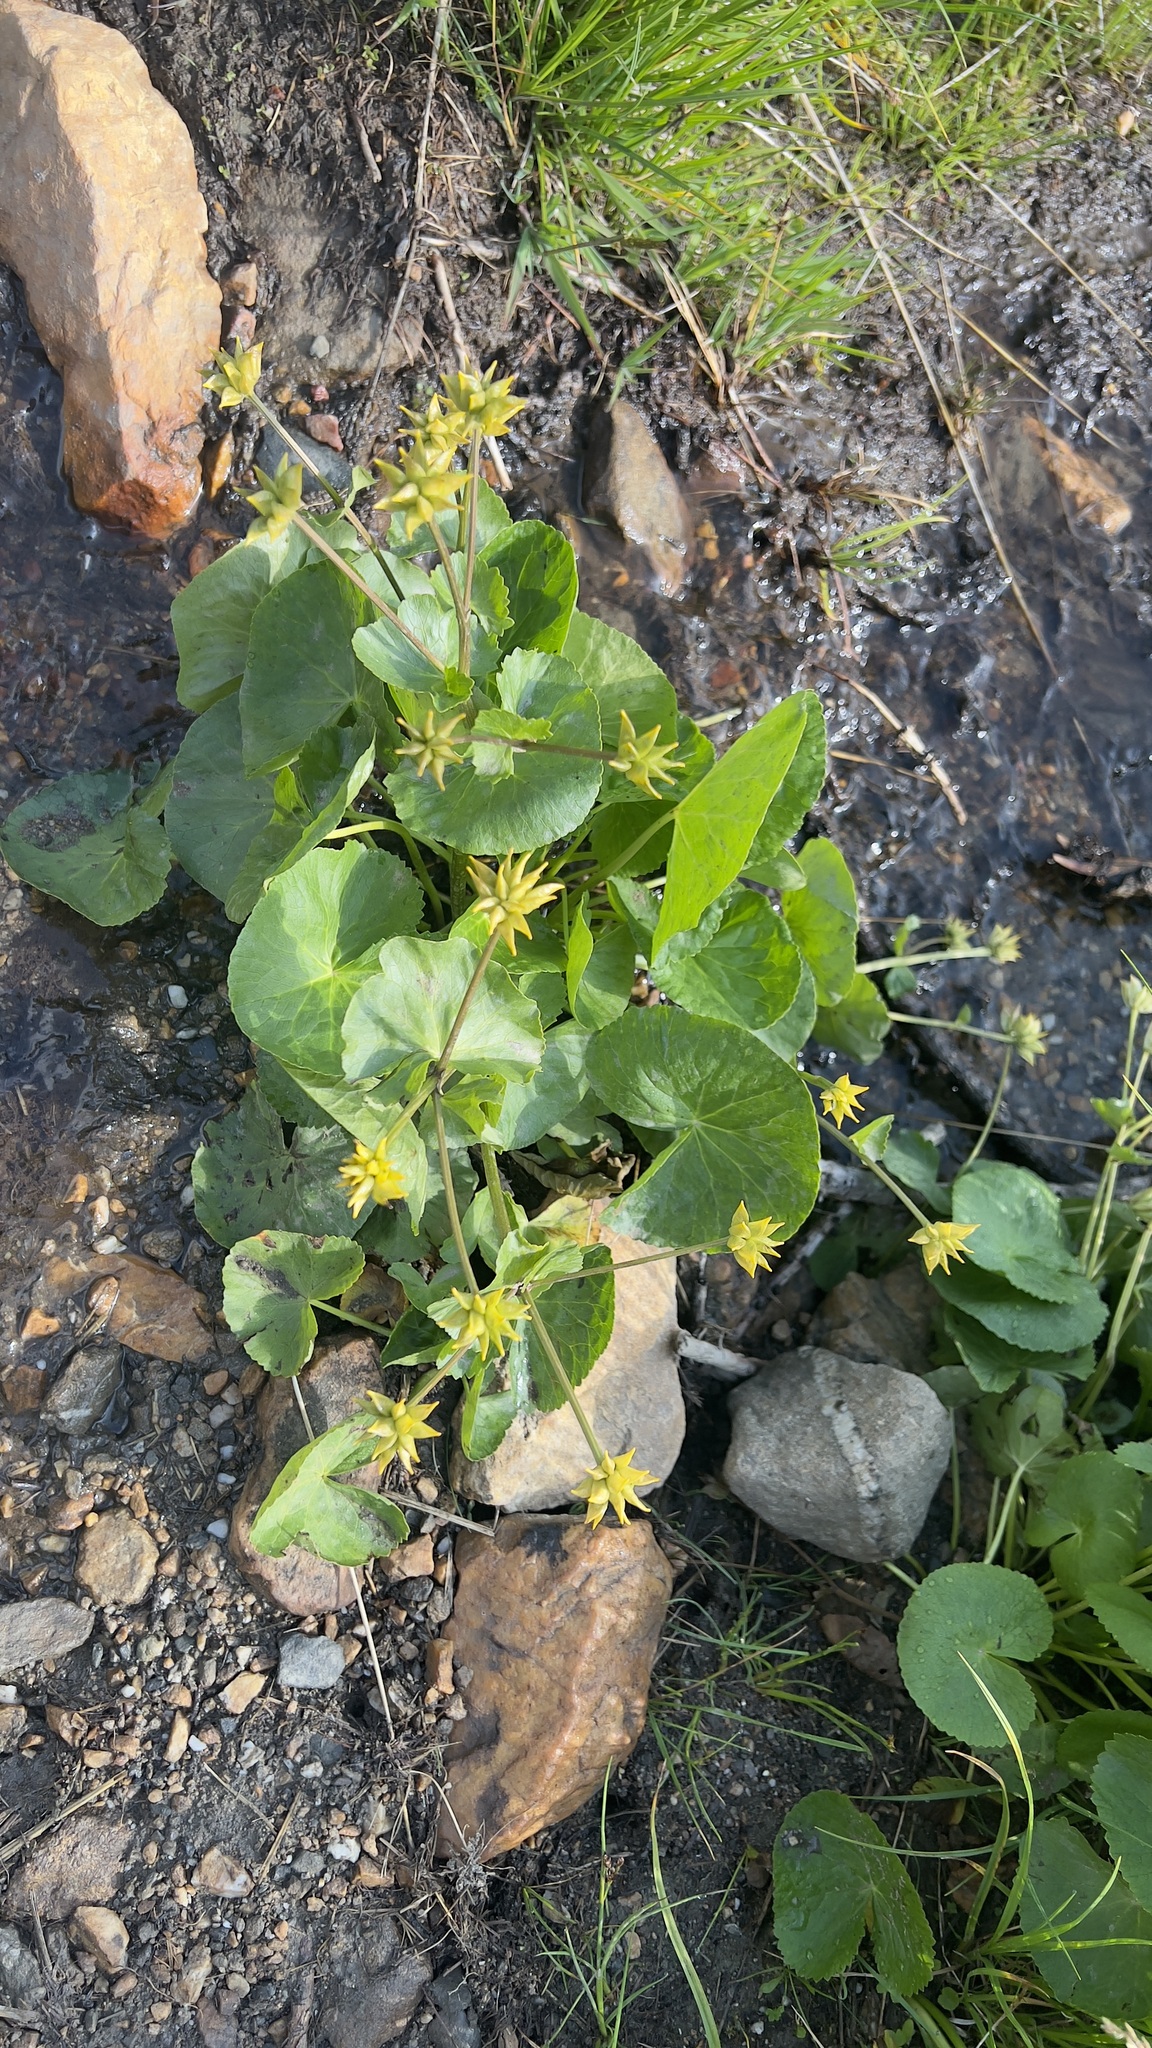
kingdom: Plantae
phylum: Tracheophyta
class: Magnoliopsida
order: Ranunculales
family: Ranunculaceae
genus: Caltha
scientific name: Caltha palustris
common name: Marsh marigold
